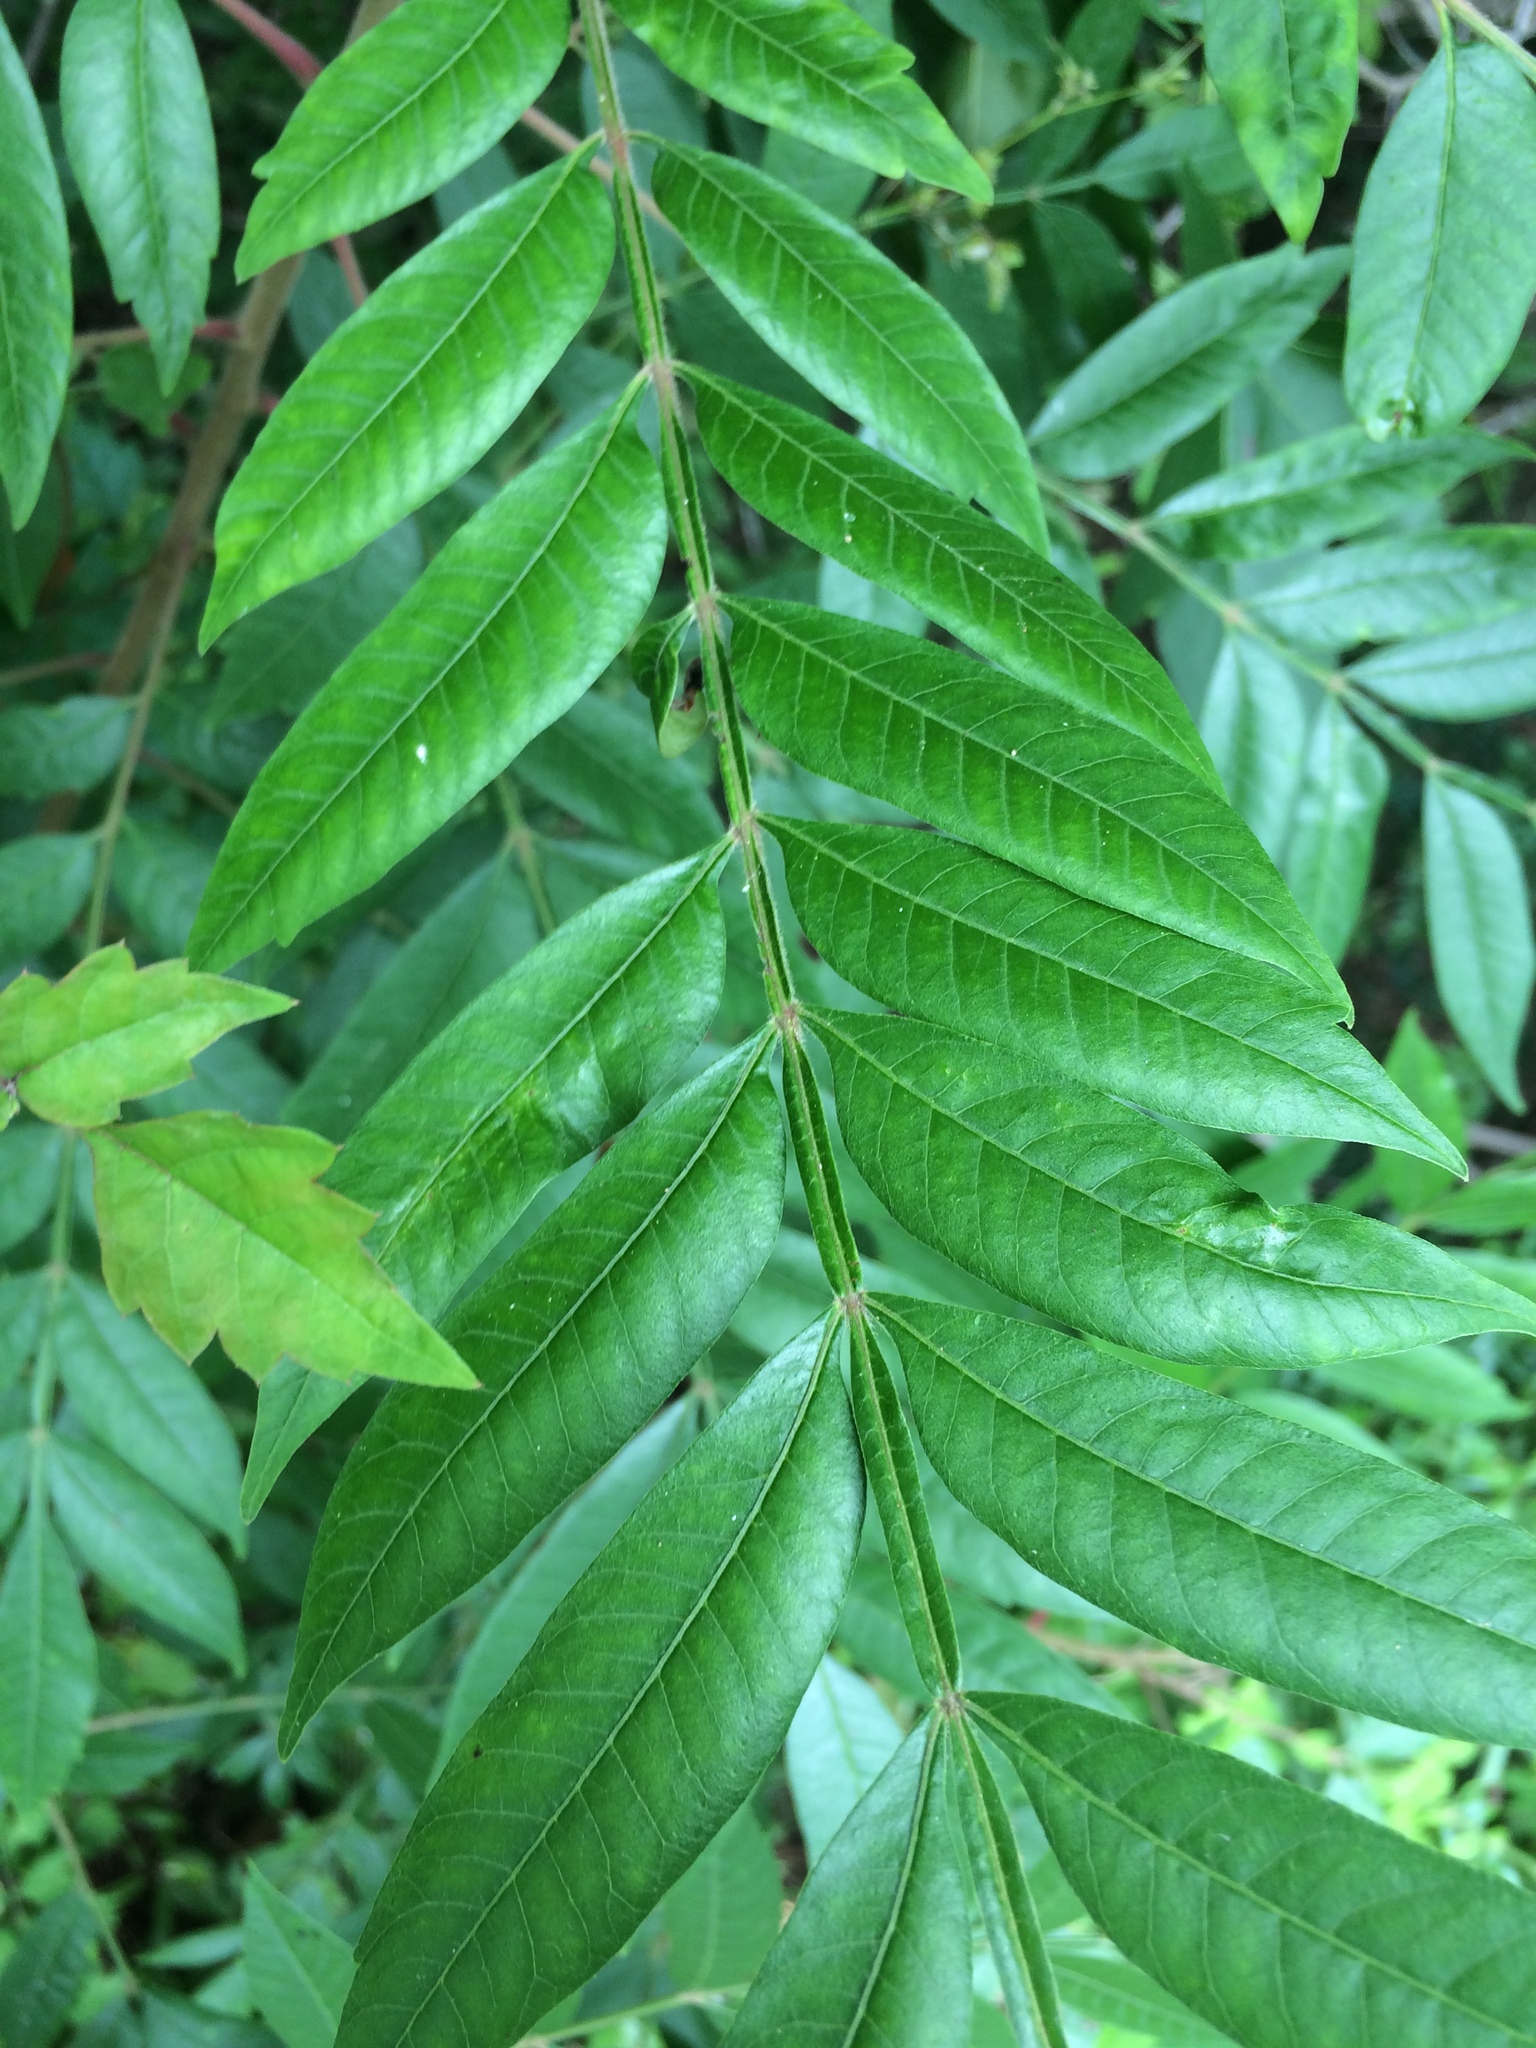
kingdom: Plantae
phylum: Tracheophyta
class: Magnoliopsida
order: Sapindales
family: Anacardiaceae
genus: Rhus
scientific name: Rhus copallina
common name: Shining sumac
